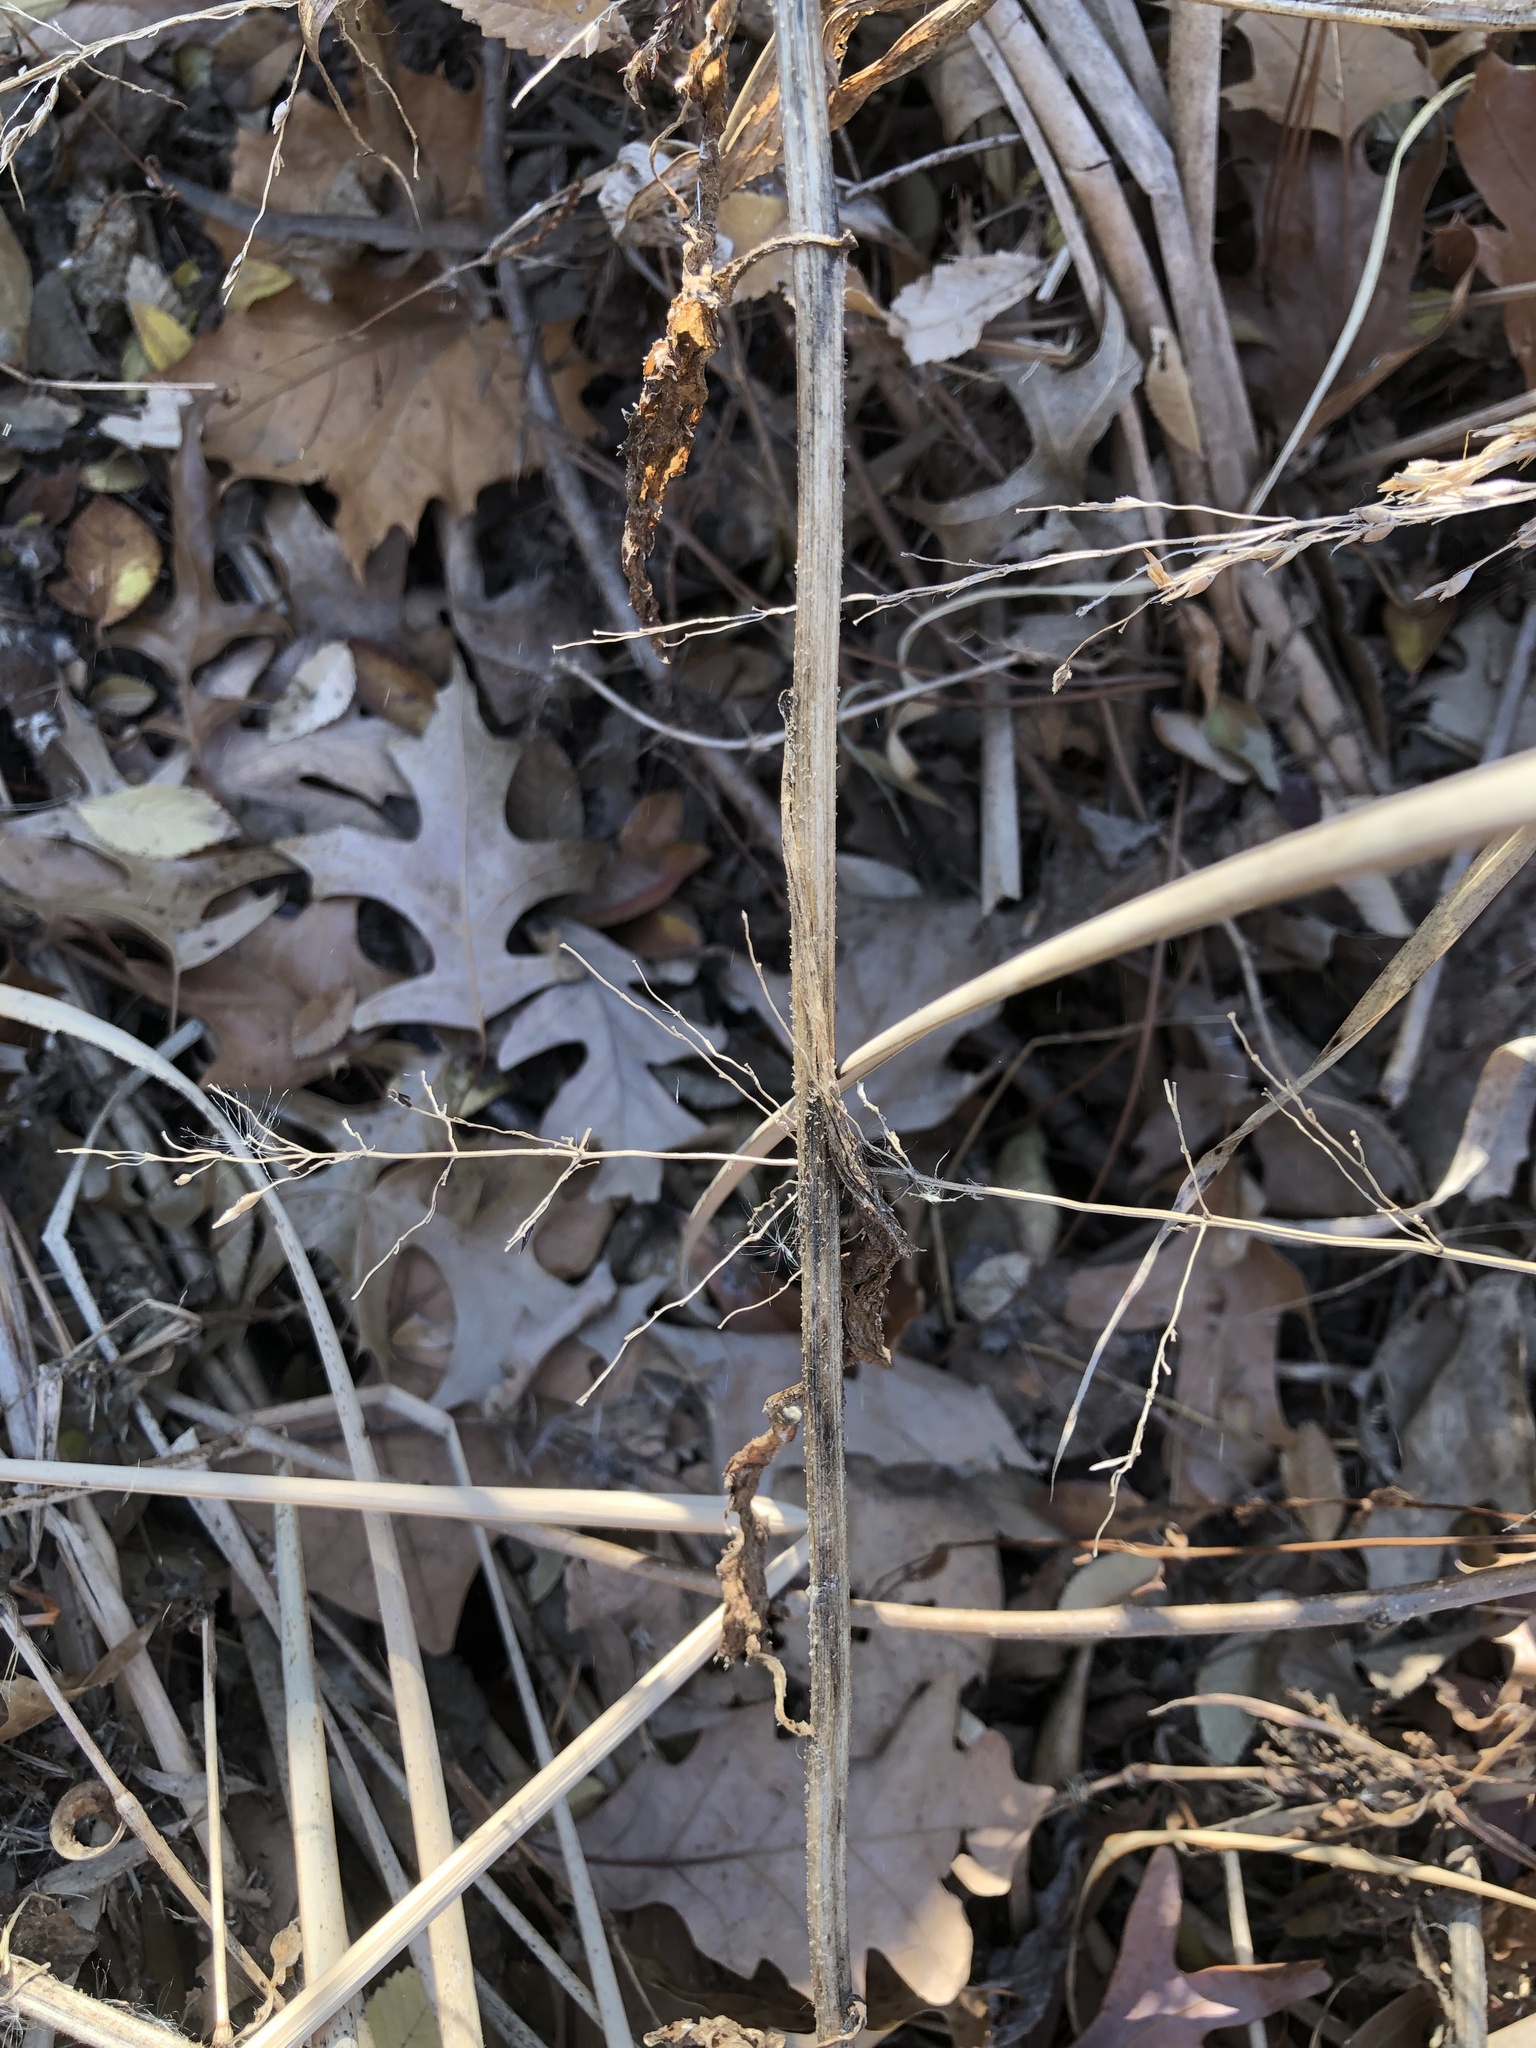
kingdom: Plantae
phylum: Tracheophyta
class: Liliopsida
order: Poales
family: Poaceae
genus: Sorghum
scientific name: Sorghum halepense
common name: Johnson-grass
